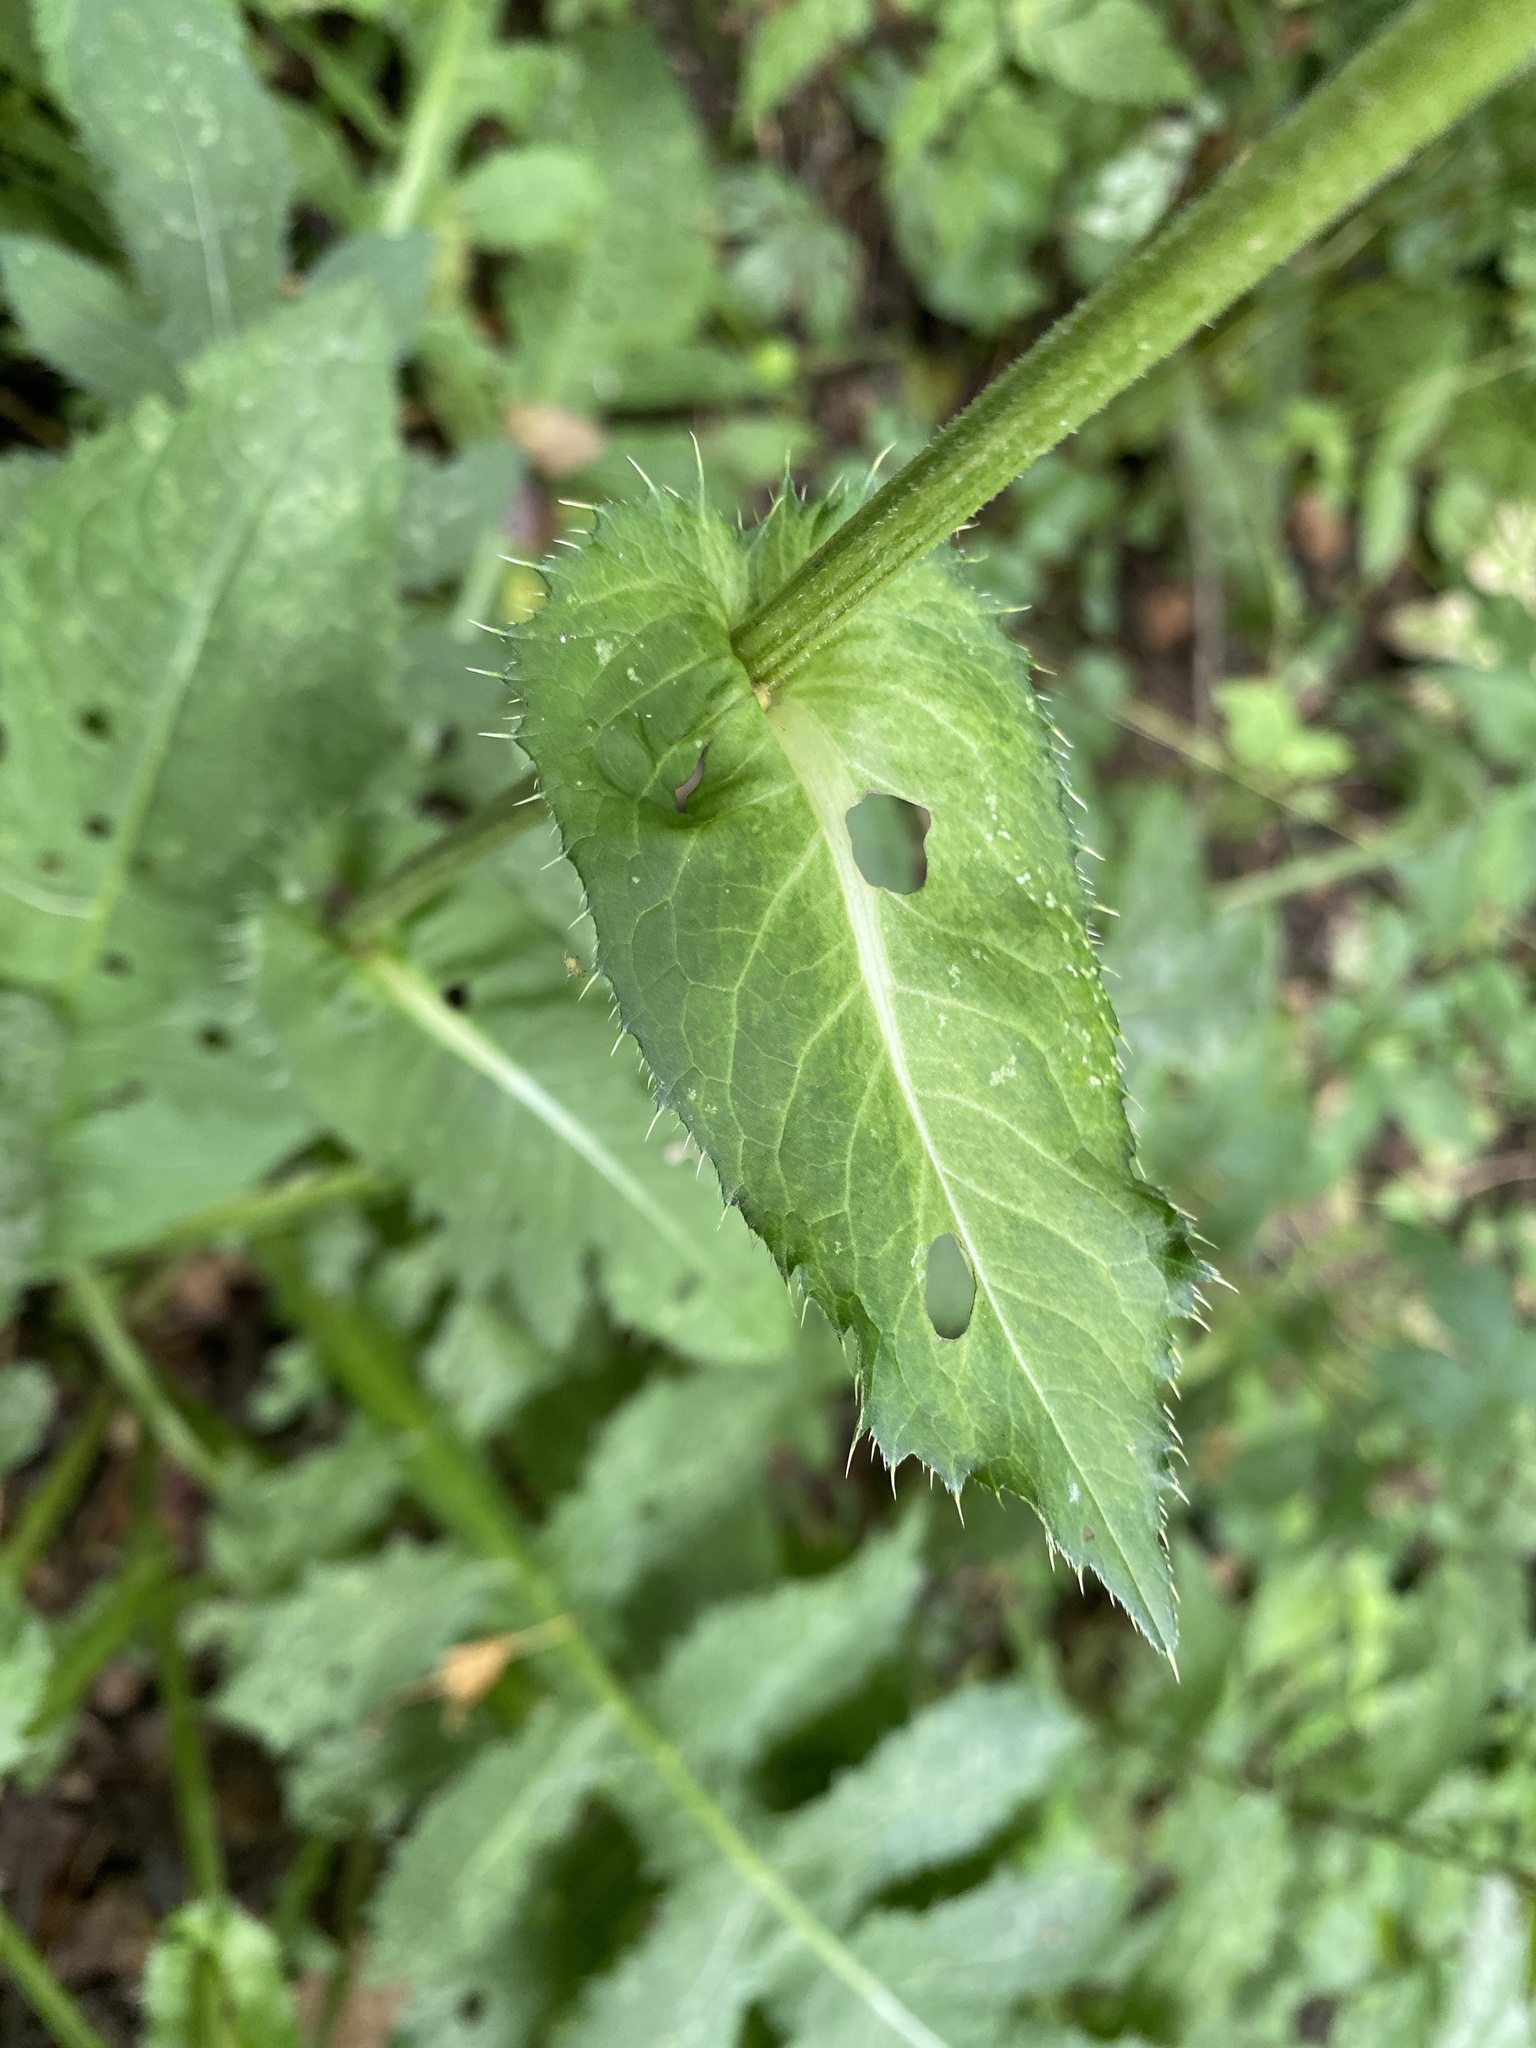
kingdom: Plantae
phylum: Tracheophyta
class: Magnoliopsida
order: Asterales
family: Asteraceae
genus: Cirsium
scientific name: Cirsium oleraceum
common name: Cabbage thistle
